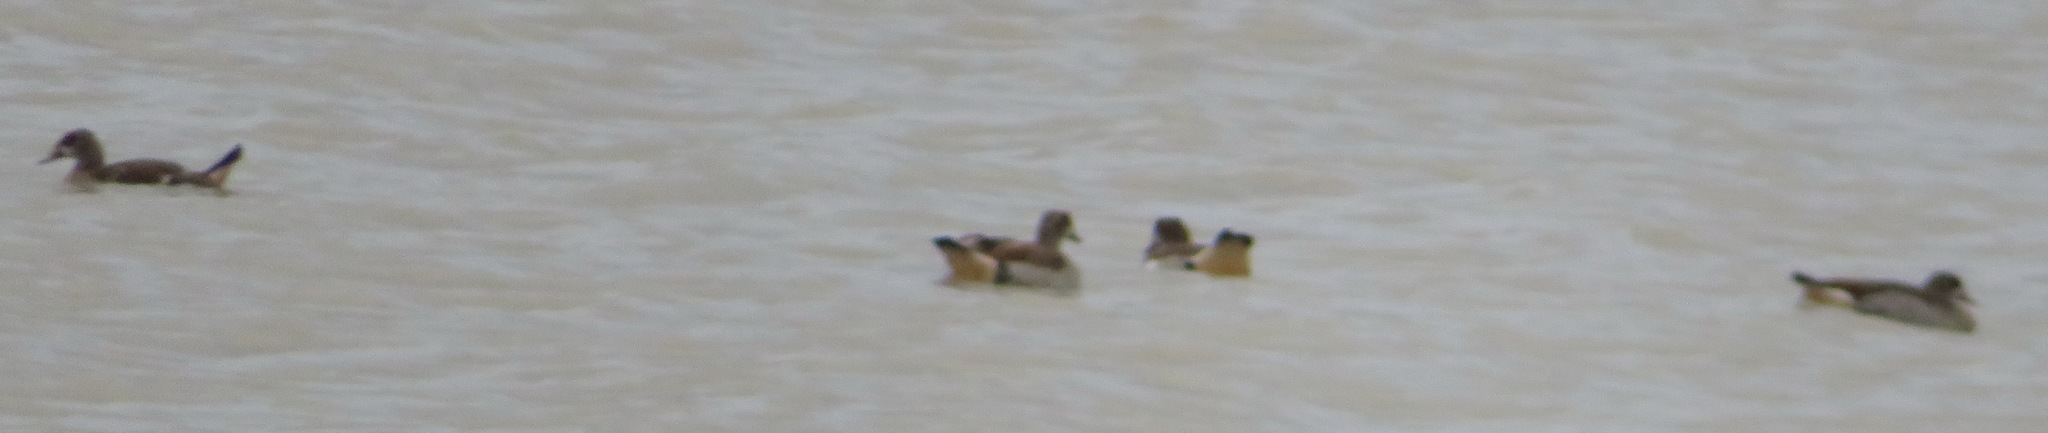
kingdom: Animalia
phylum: Chordata
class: Aves
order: Anseriformes
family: Anatidae
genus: Alopochen
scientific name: Alopochen aegyptiaca
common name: Egyptian goose
